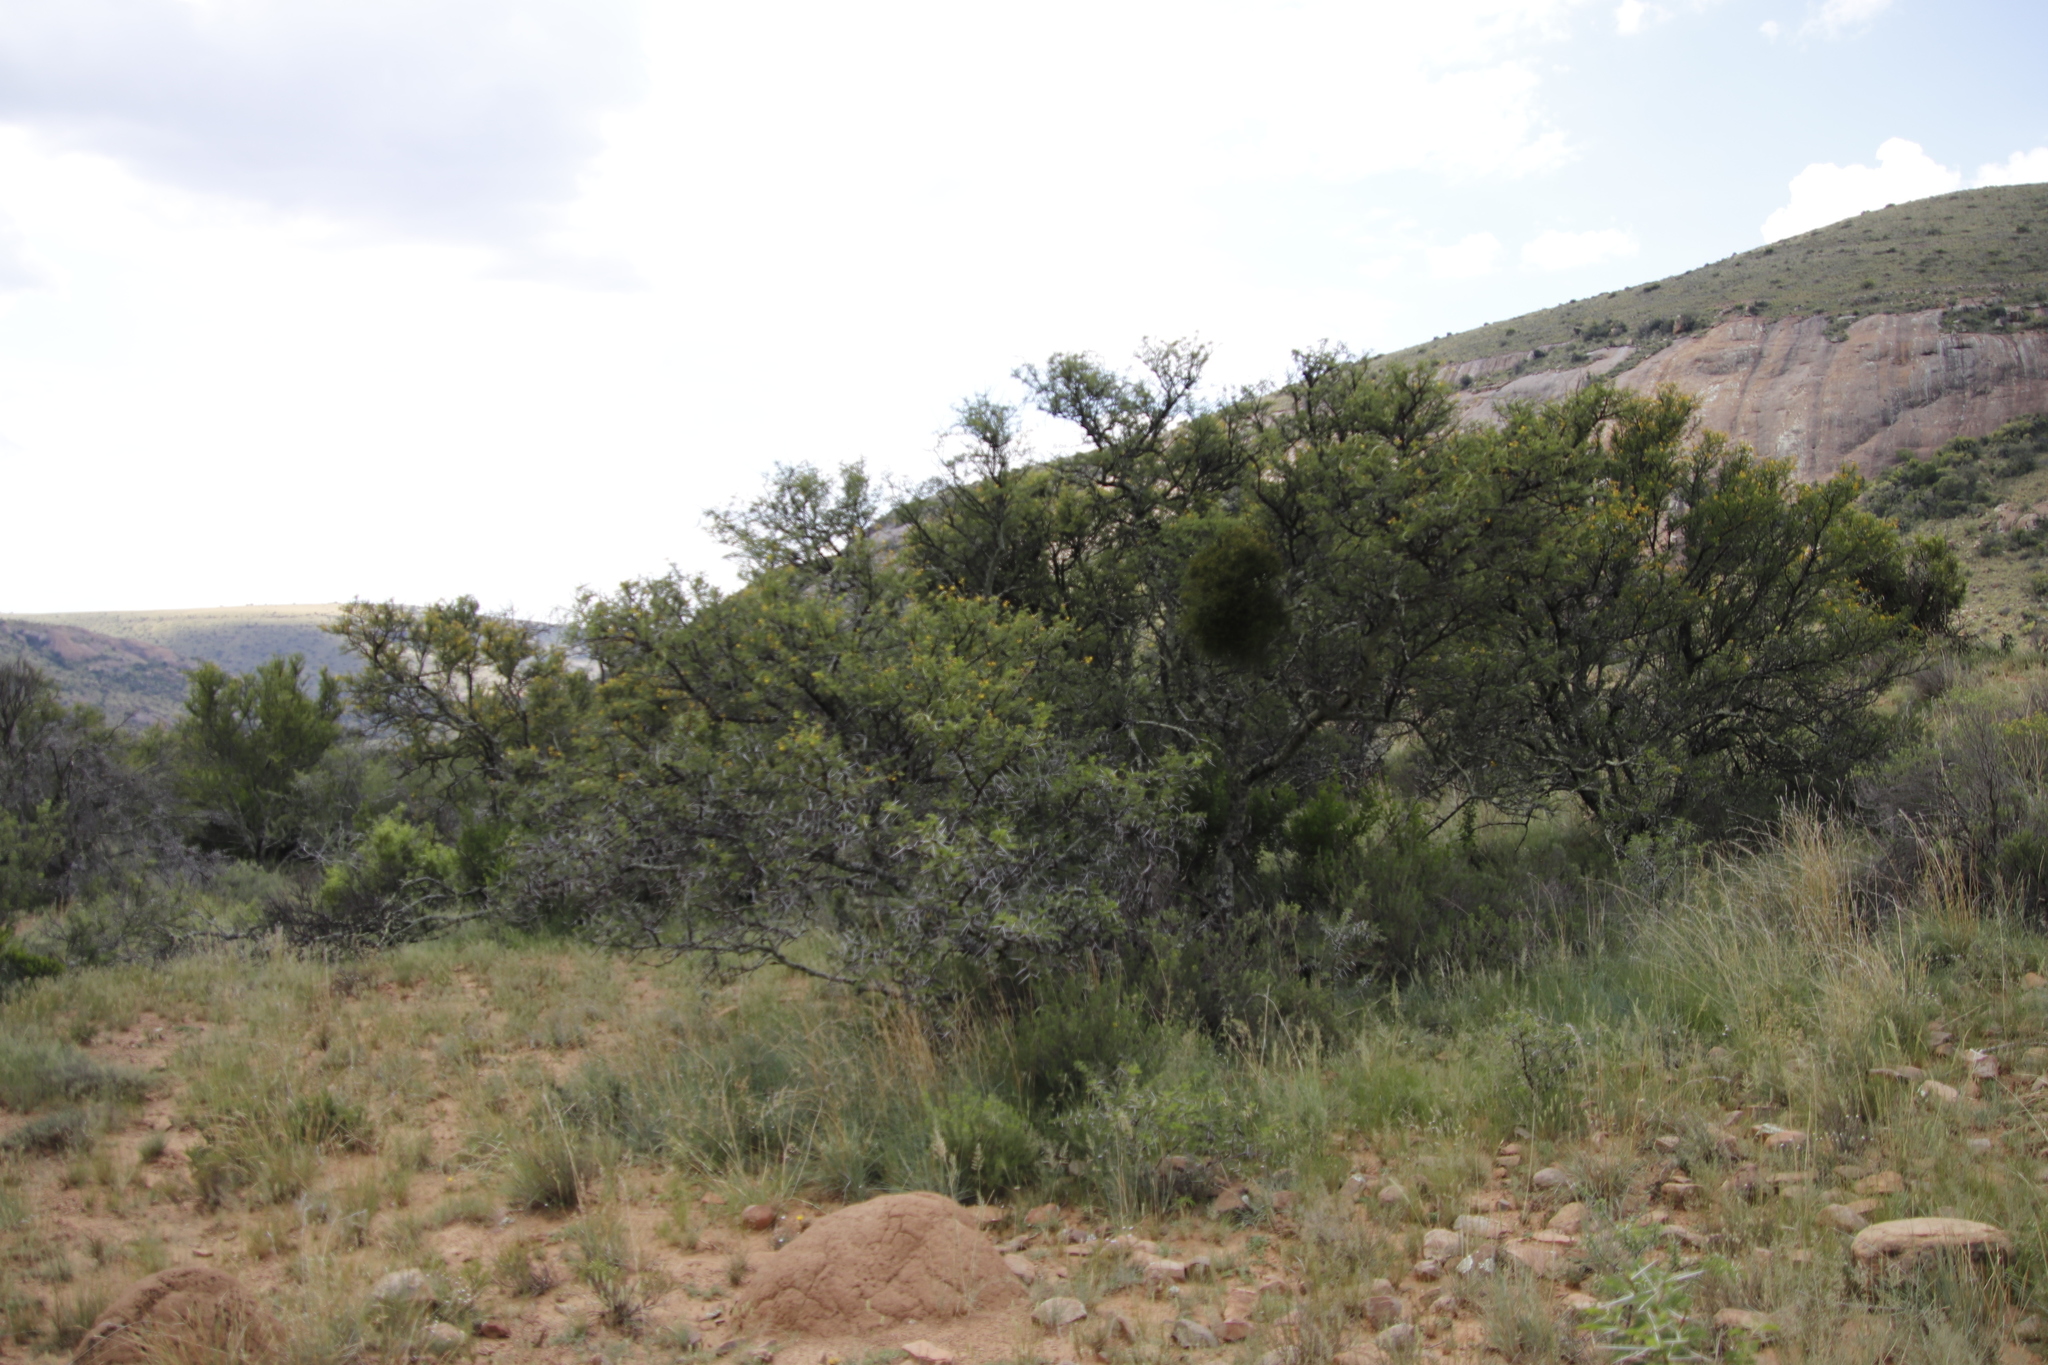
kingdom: Plantae
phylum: Tracheophyta
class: Magnoliopsida
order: Fabales
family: Fabaceae
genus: Vachellia
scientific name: Vachellia karroo
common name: Sweet thorn
